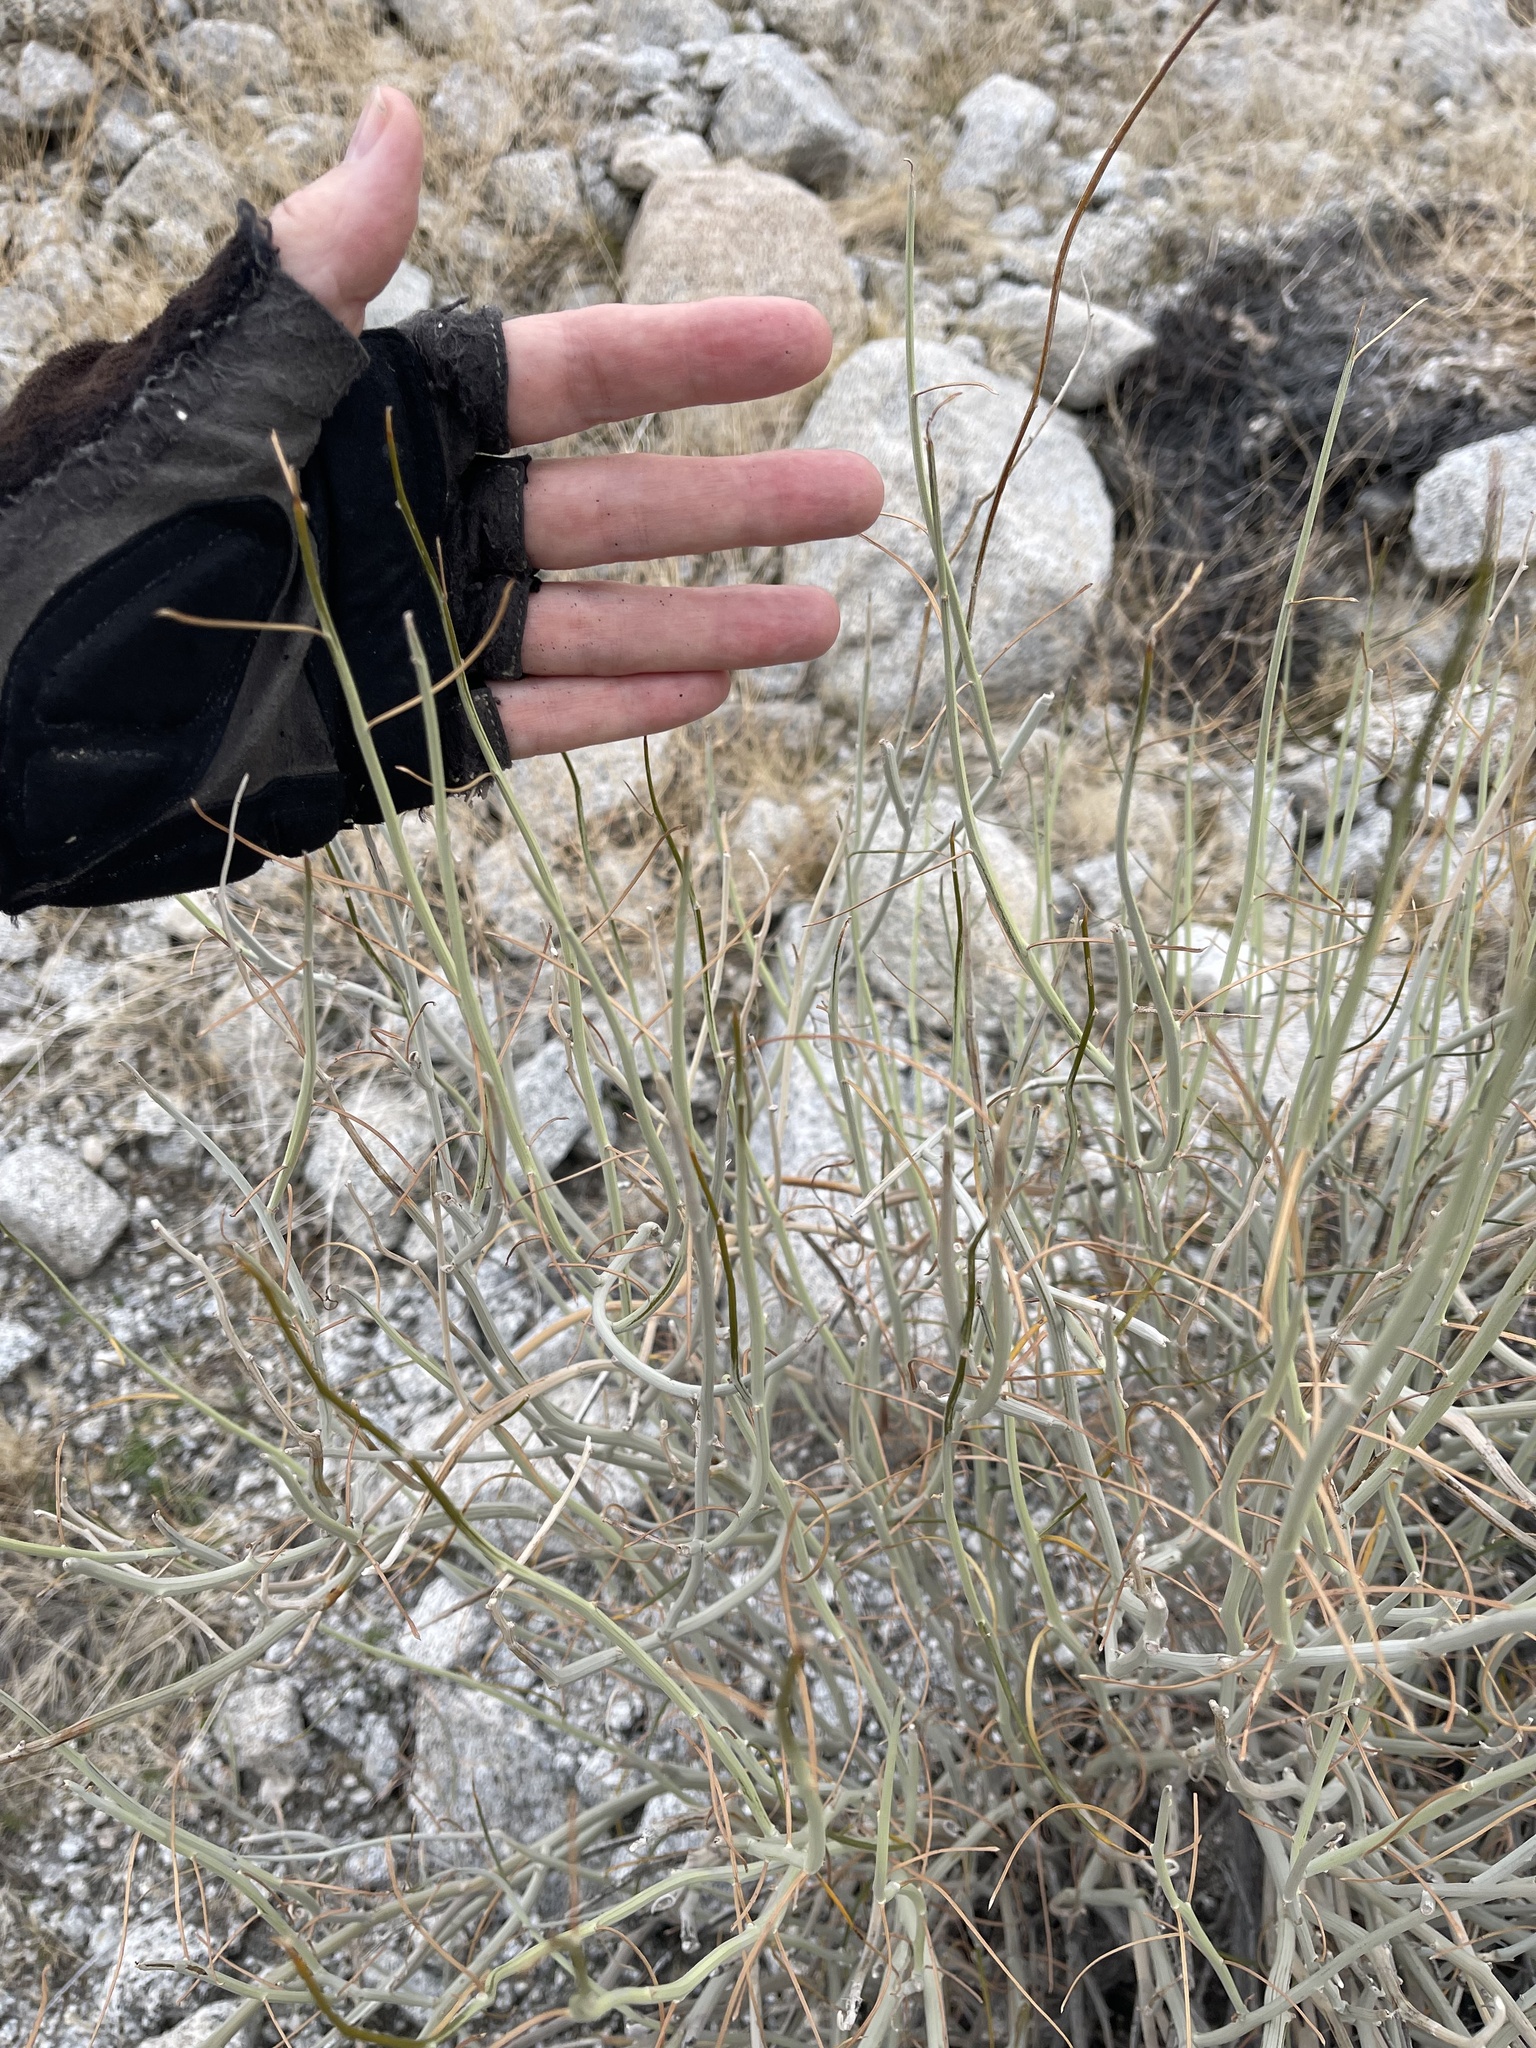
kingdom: Plantae
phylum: Tracheophyta
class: Magnoliopsida
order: Fabales
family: Fabaceae
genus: Senna
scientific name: Senna armata
